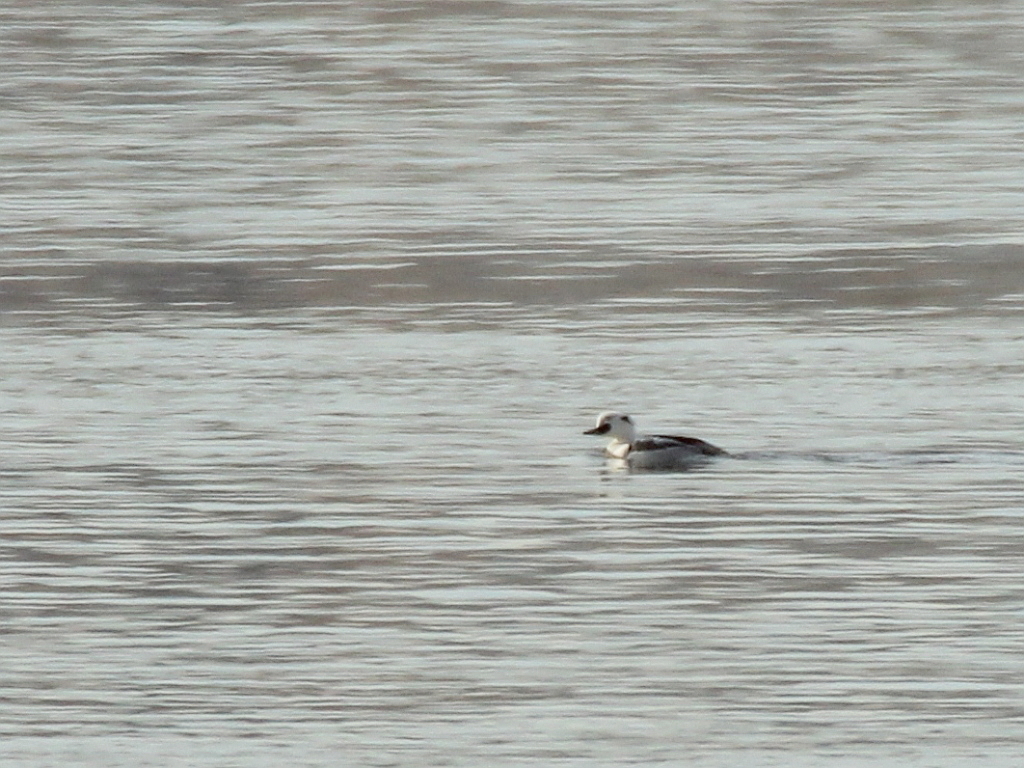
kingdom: Animalia
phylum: Chordata
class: Aves
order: Anseriformes
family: Anatidae
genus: Mergellus
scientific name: Mergellus albellus
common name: Smew
